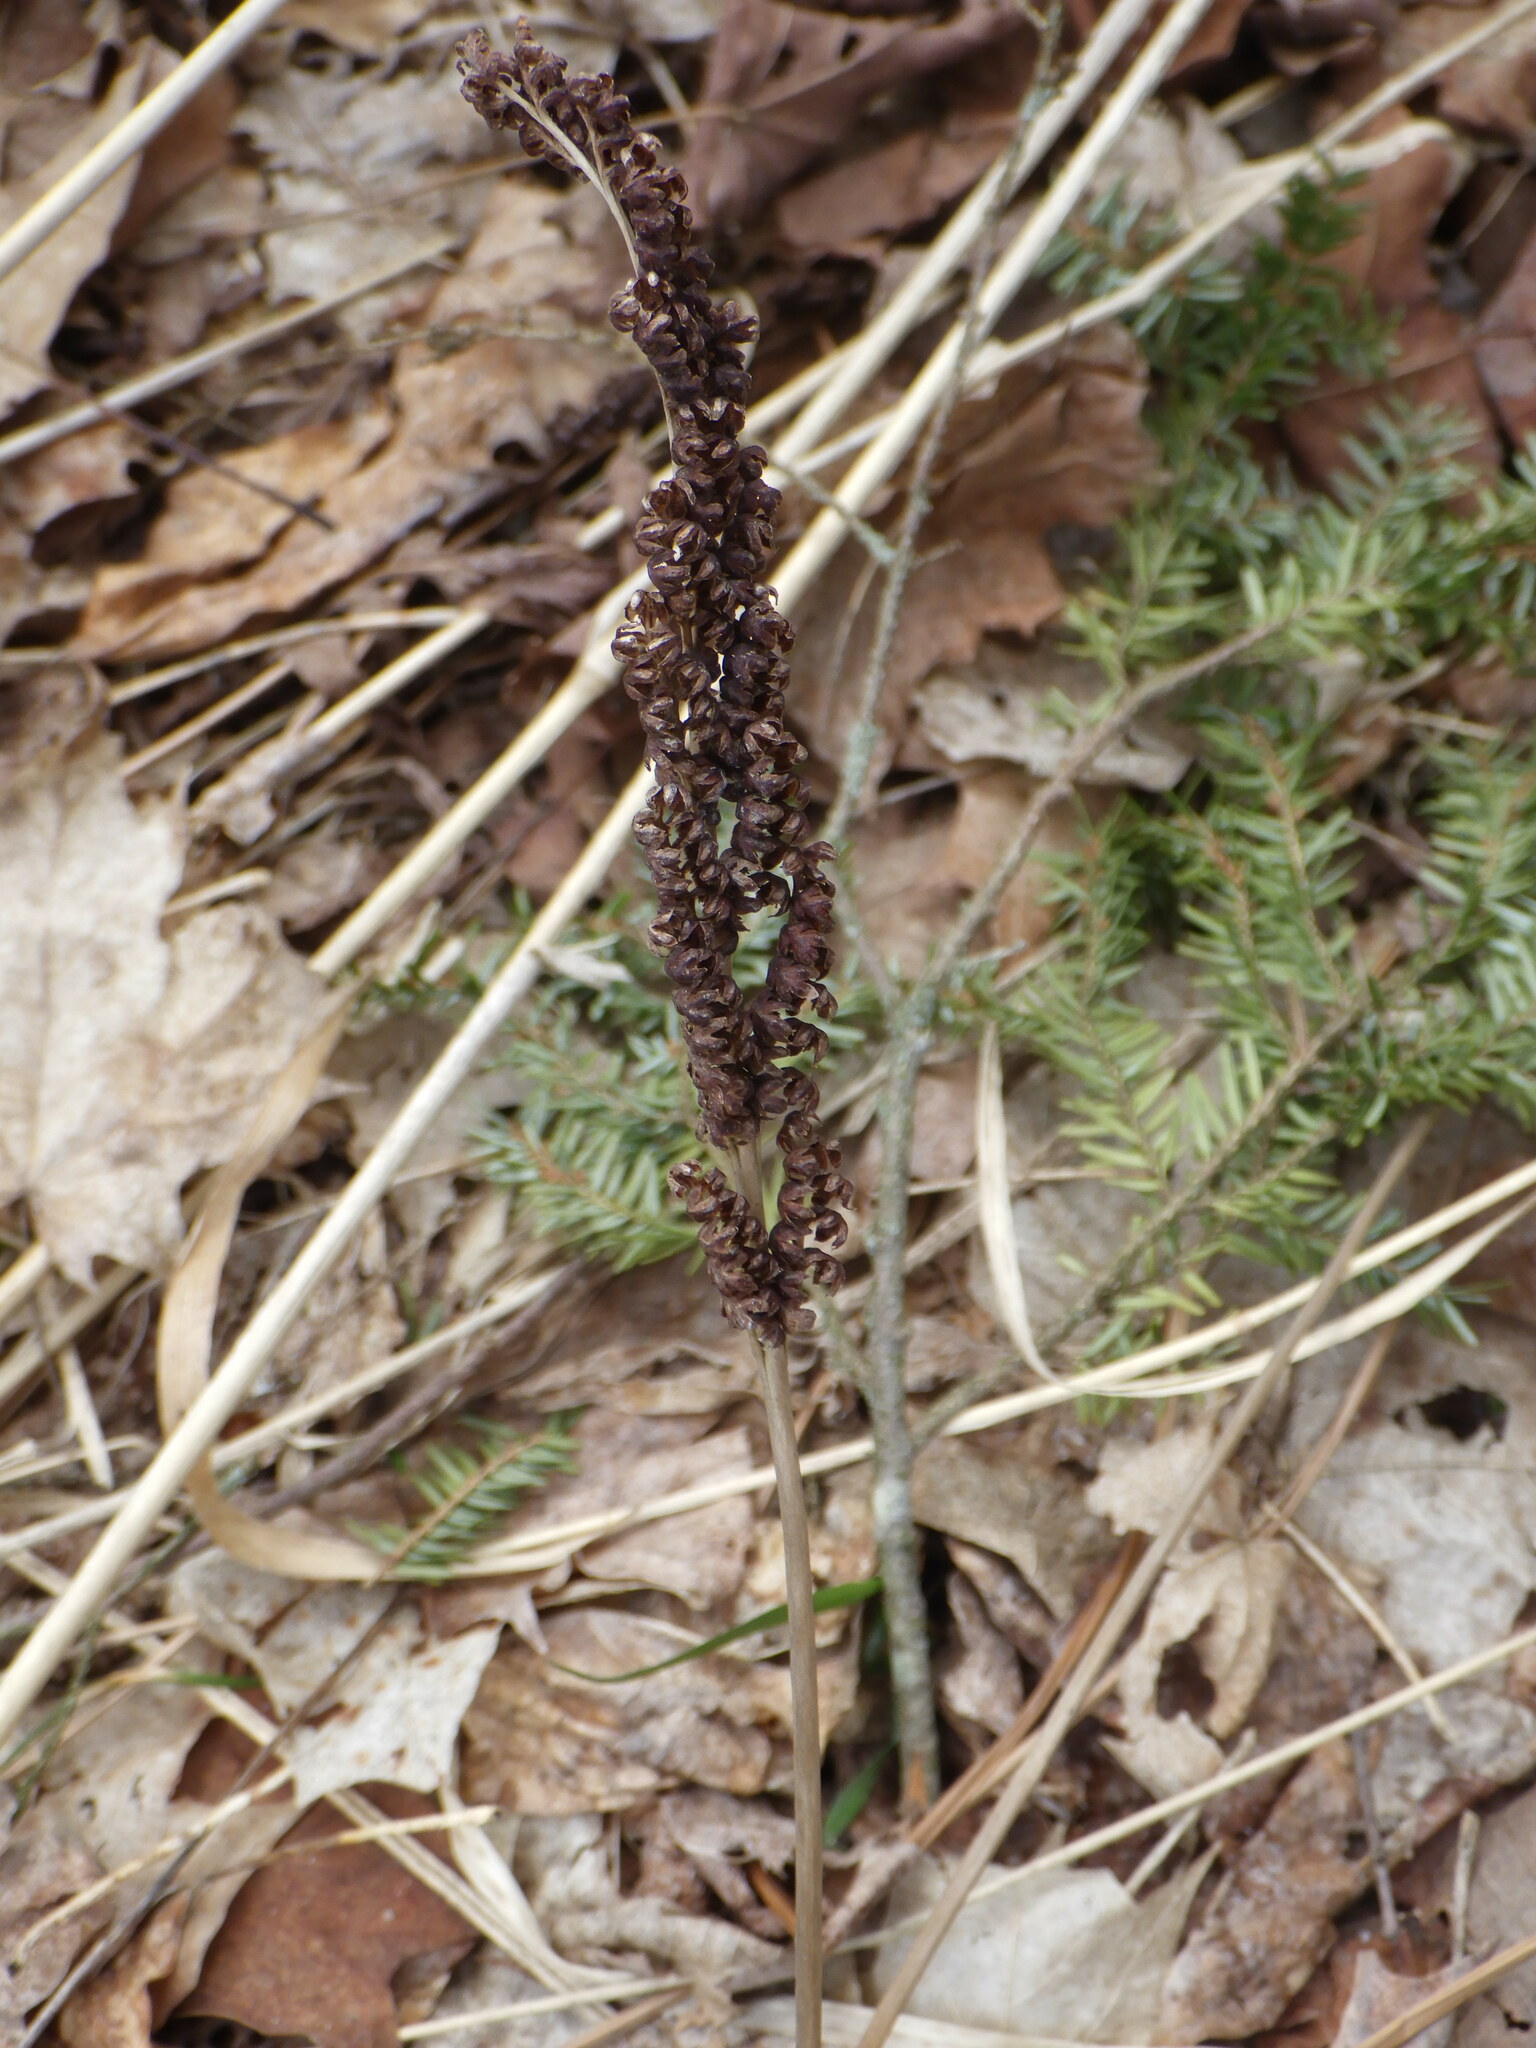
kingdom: Plantae
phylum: Tracheophyta
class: Polypodiopsida
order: Polypodiales
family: Onocleaceae
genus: Onoclea
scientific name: Onoclea sensibilis
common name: Sensitive fern
